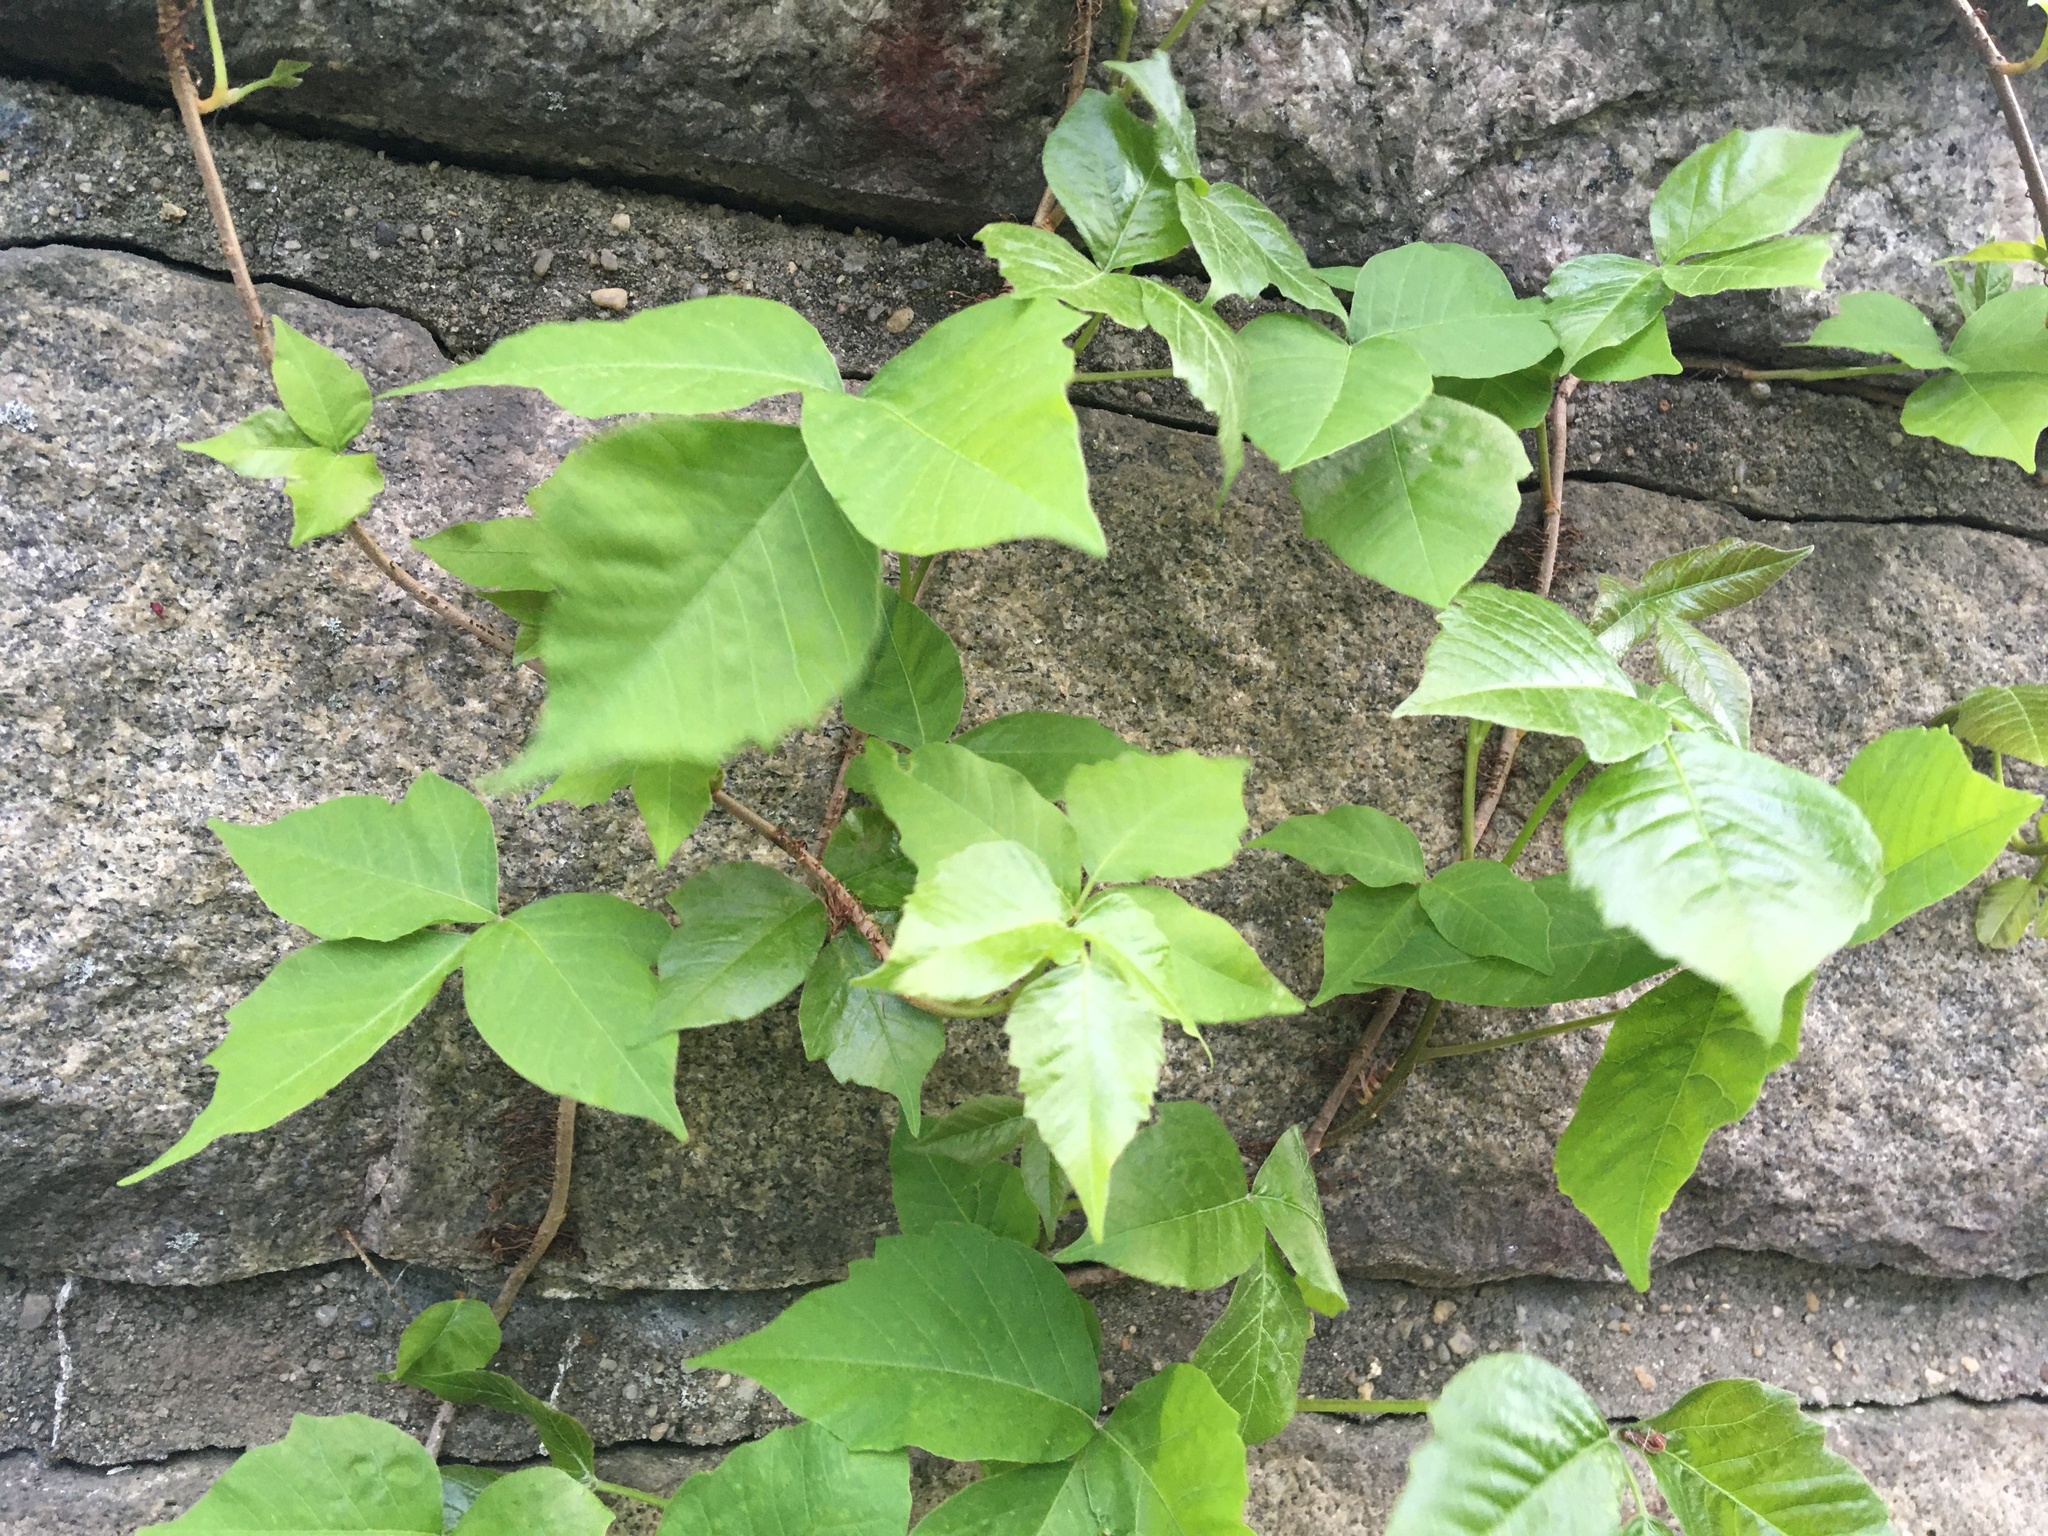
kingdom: Plantae
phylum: Tracheophyta
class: Magnoliopsida
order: Sapindales
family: Anacardiaceae
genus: Toxicodendron
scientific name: Toxicodendron radicans
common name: Poison ivy
